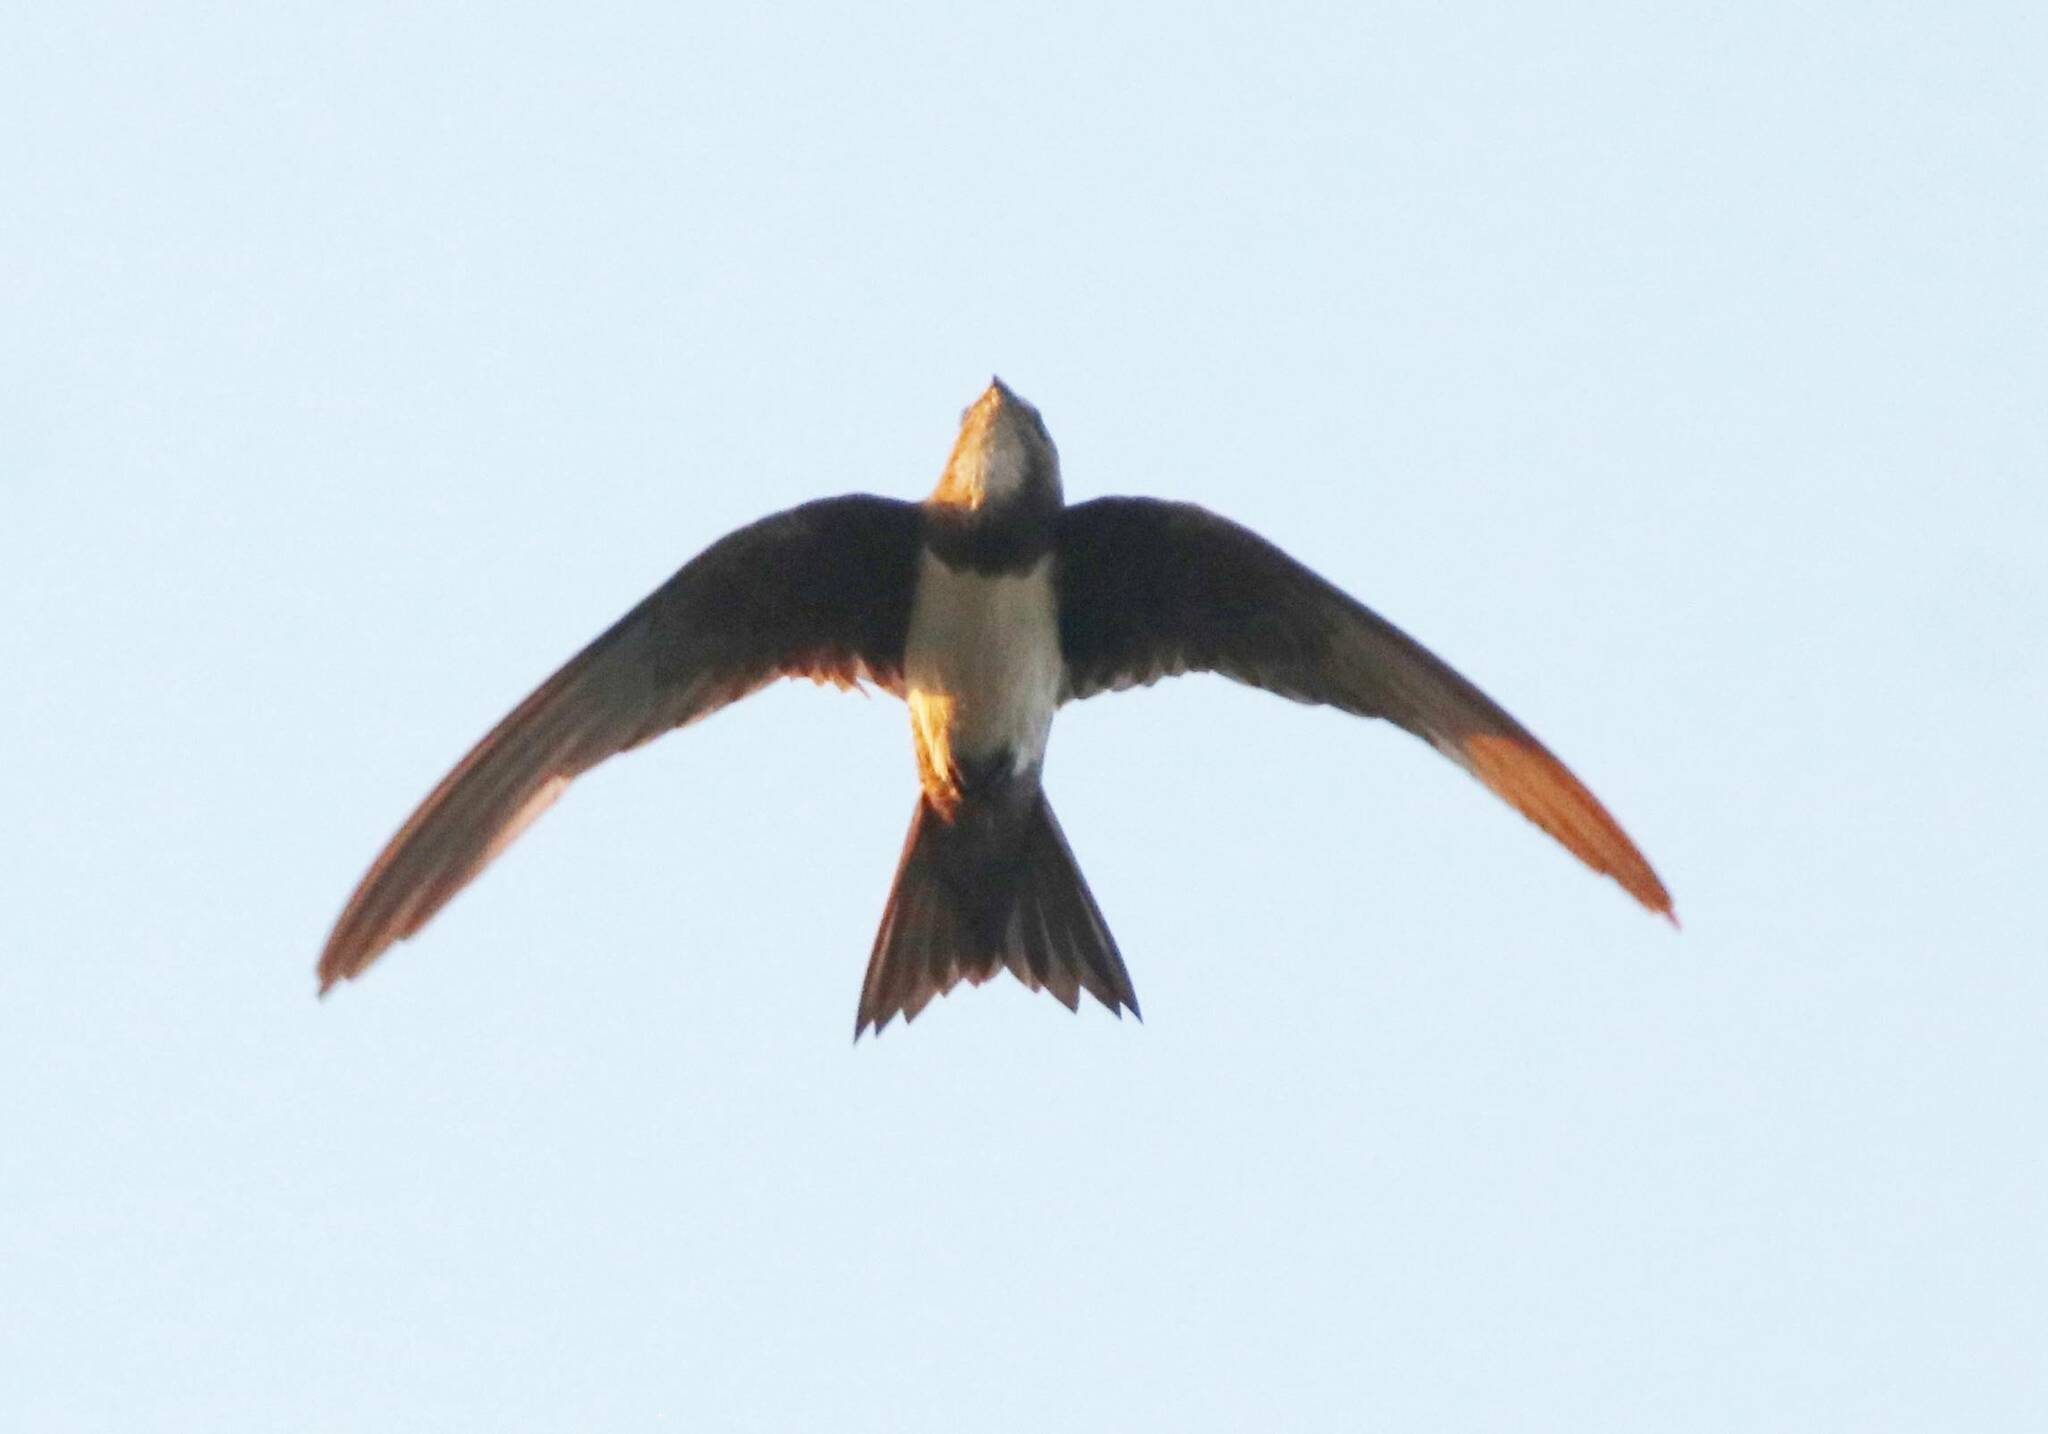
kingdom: Animalia
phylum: Chordata
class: Aves
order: Apodiformes
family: Apodidae
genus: Tachymarptis
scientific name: Tachymarptis melba
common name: Alpine swift
